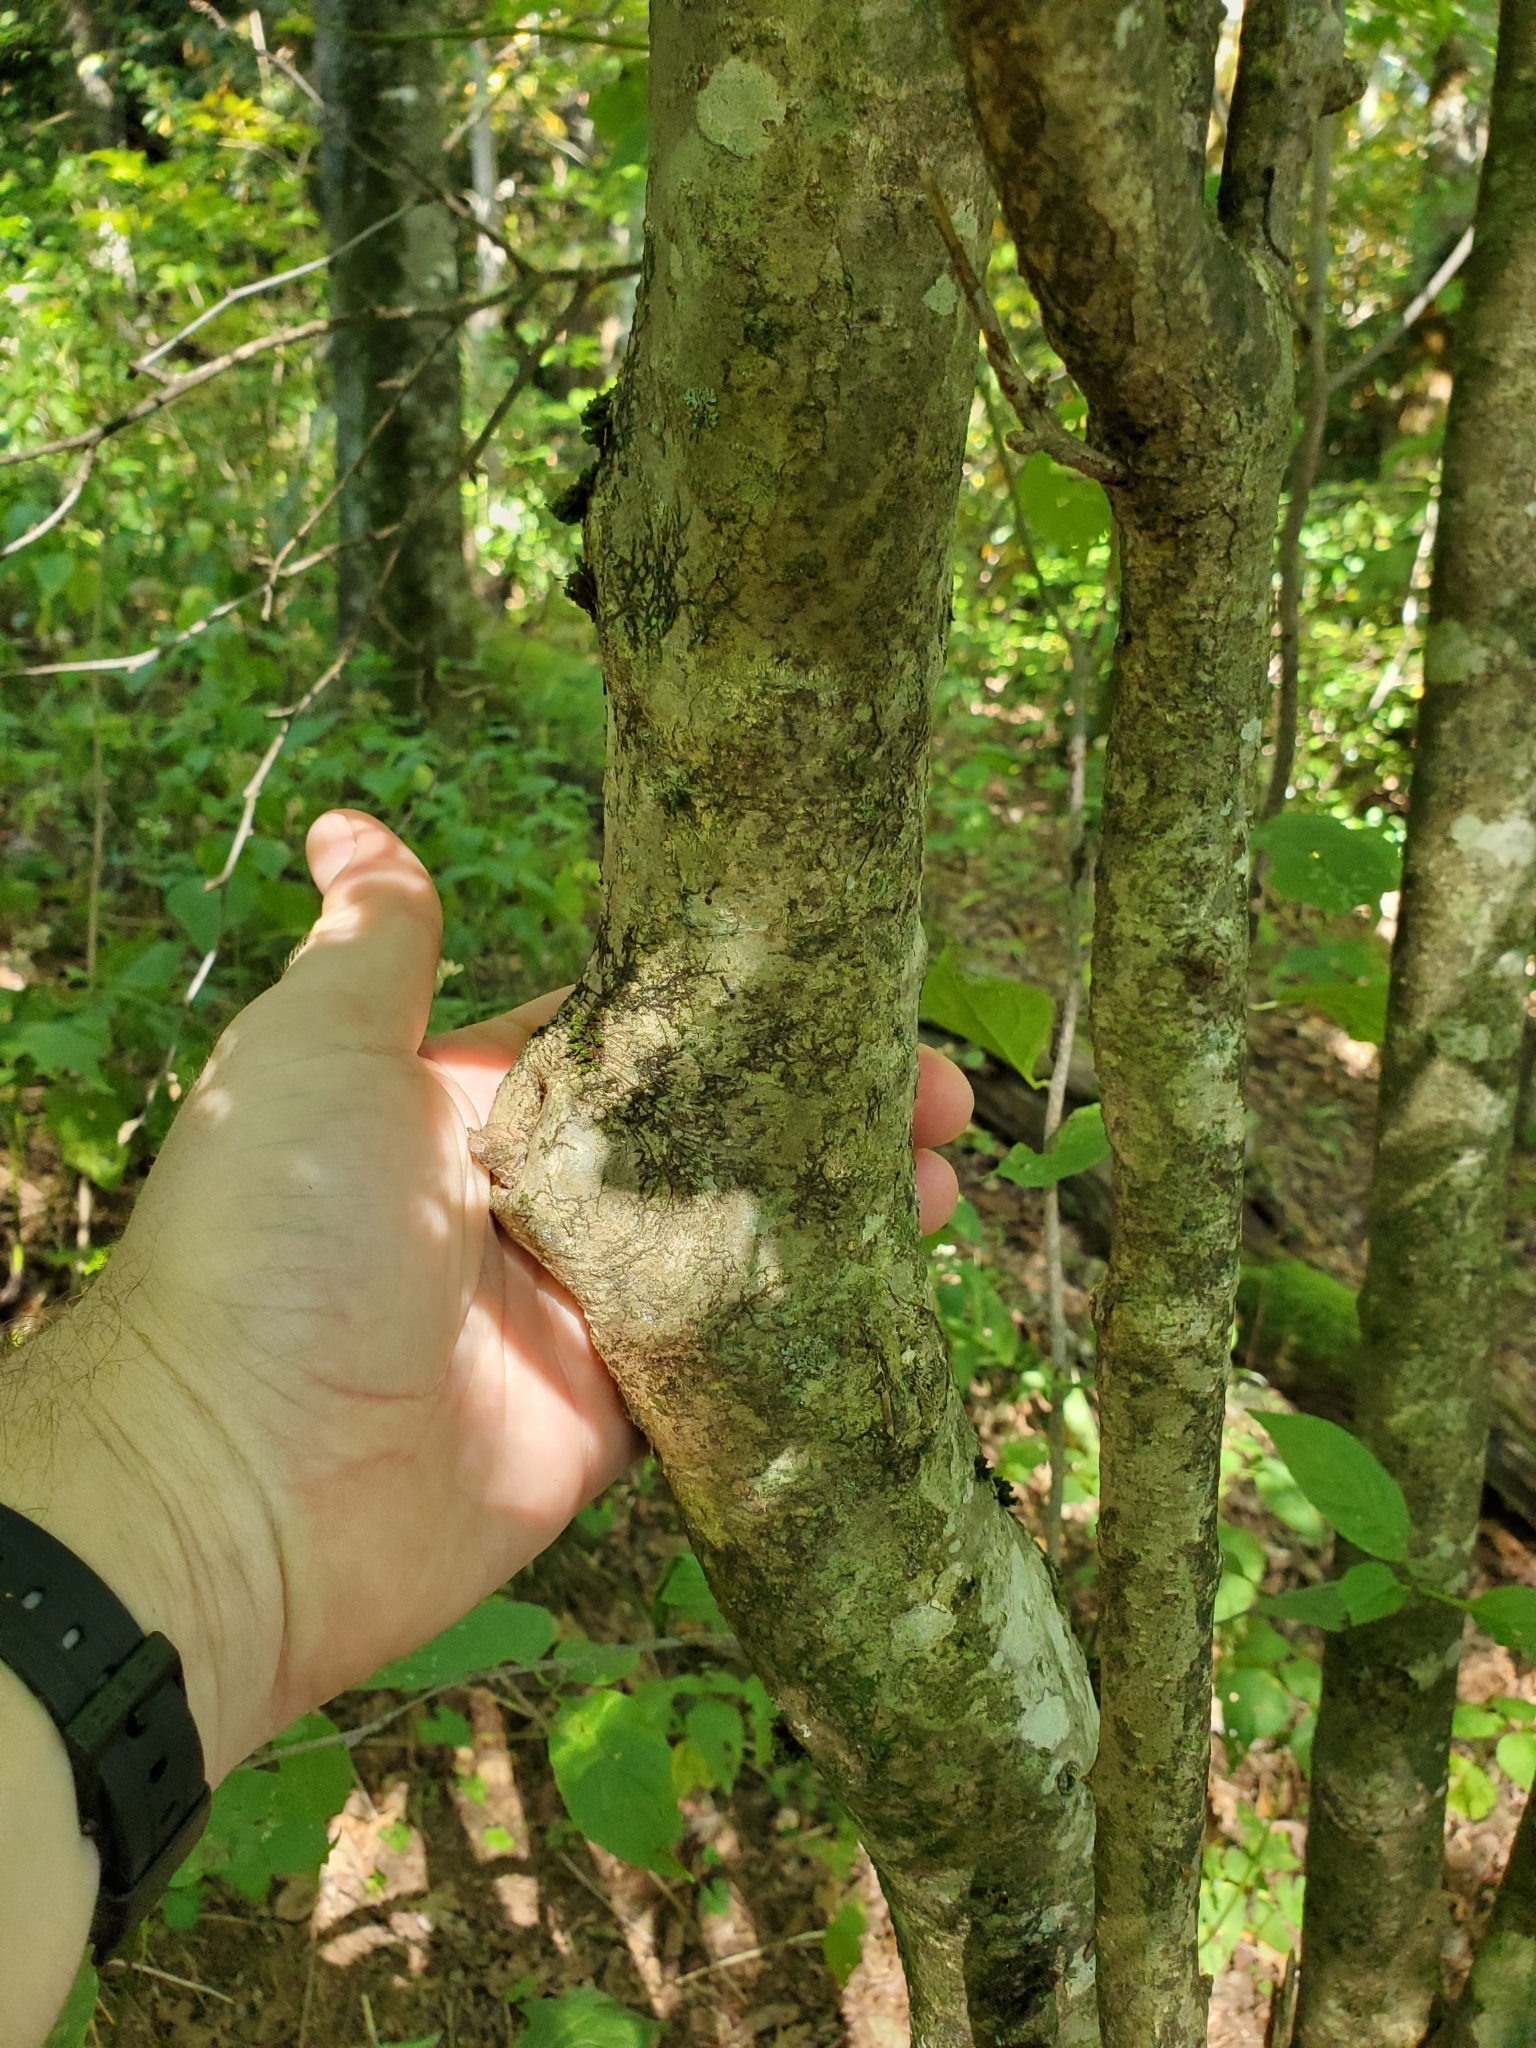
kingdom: Plantae
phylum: Tracheophyta
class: Magnoliopsida
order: Aquifoliales
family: Aquifoliaceae
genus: Ilex
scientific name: Ilex montana
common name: Mountain winterberry
